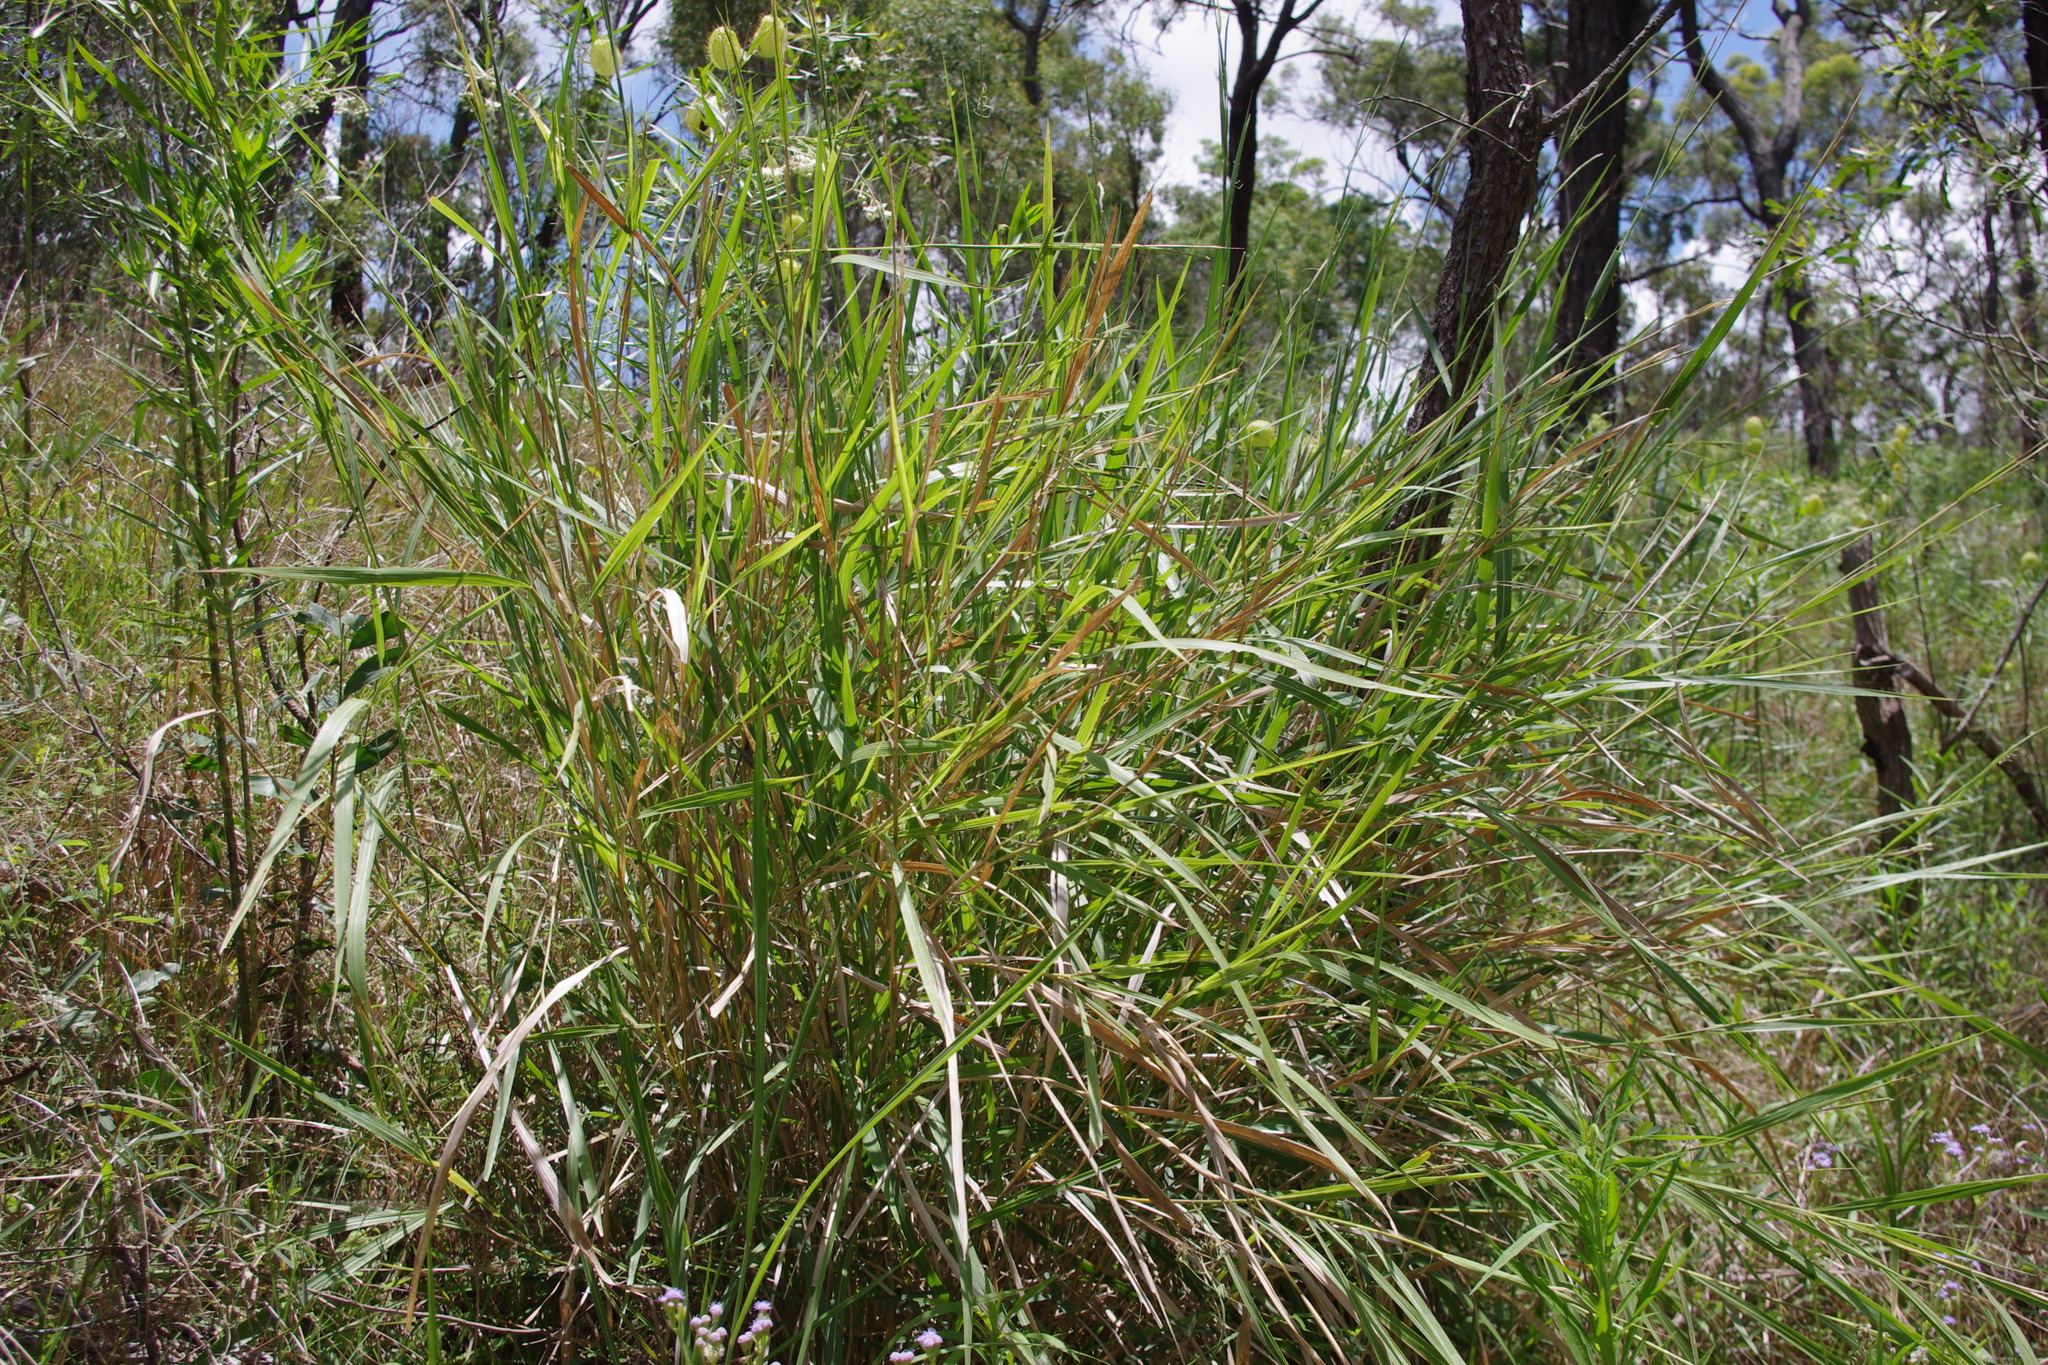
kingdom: Plantae
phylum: Tracheophyta
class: Liliopsida
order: Poales
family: Poaceae
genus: Polytoca
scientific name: Polytoca cyathopoda
